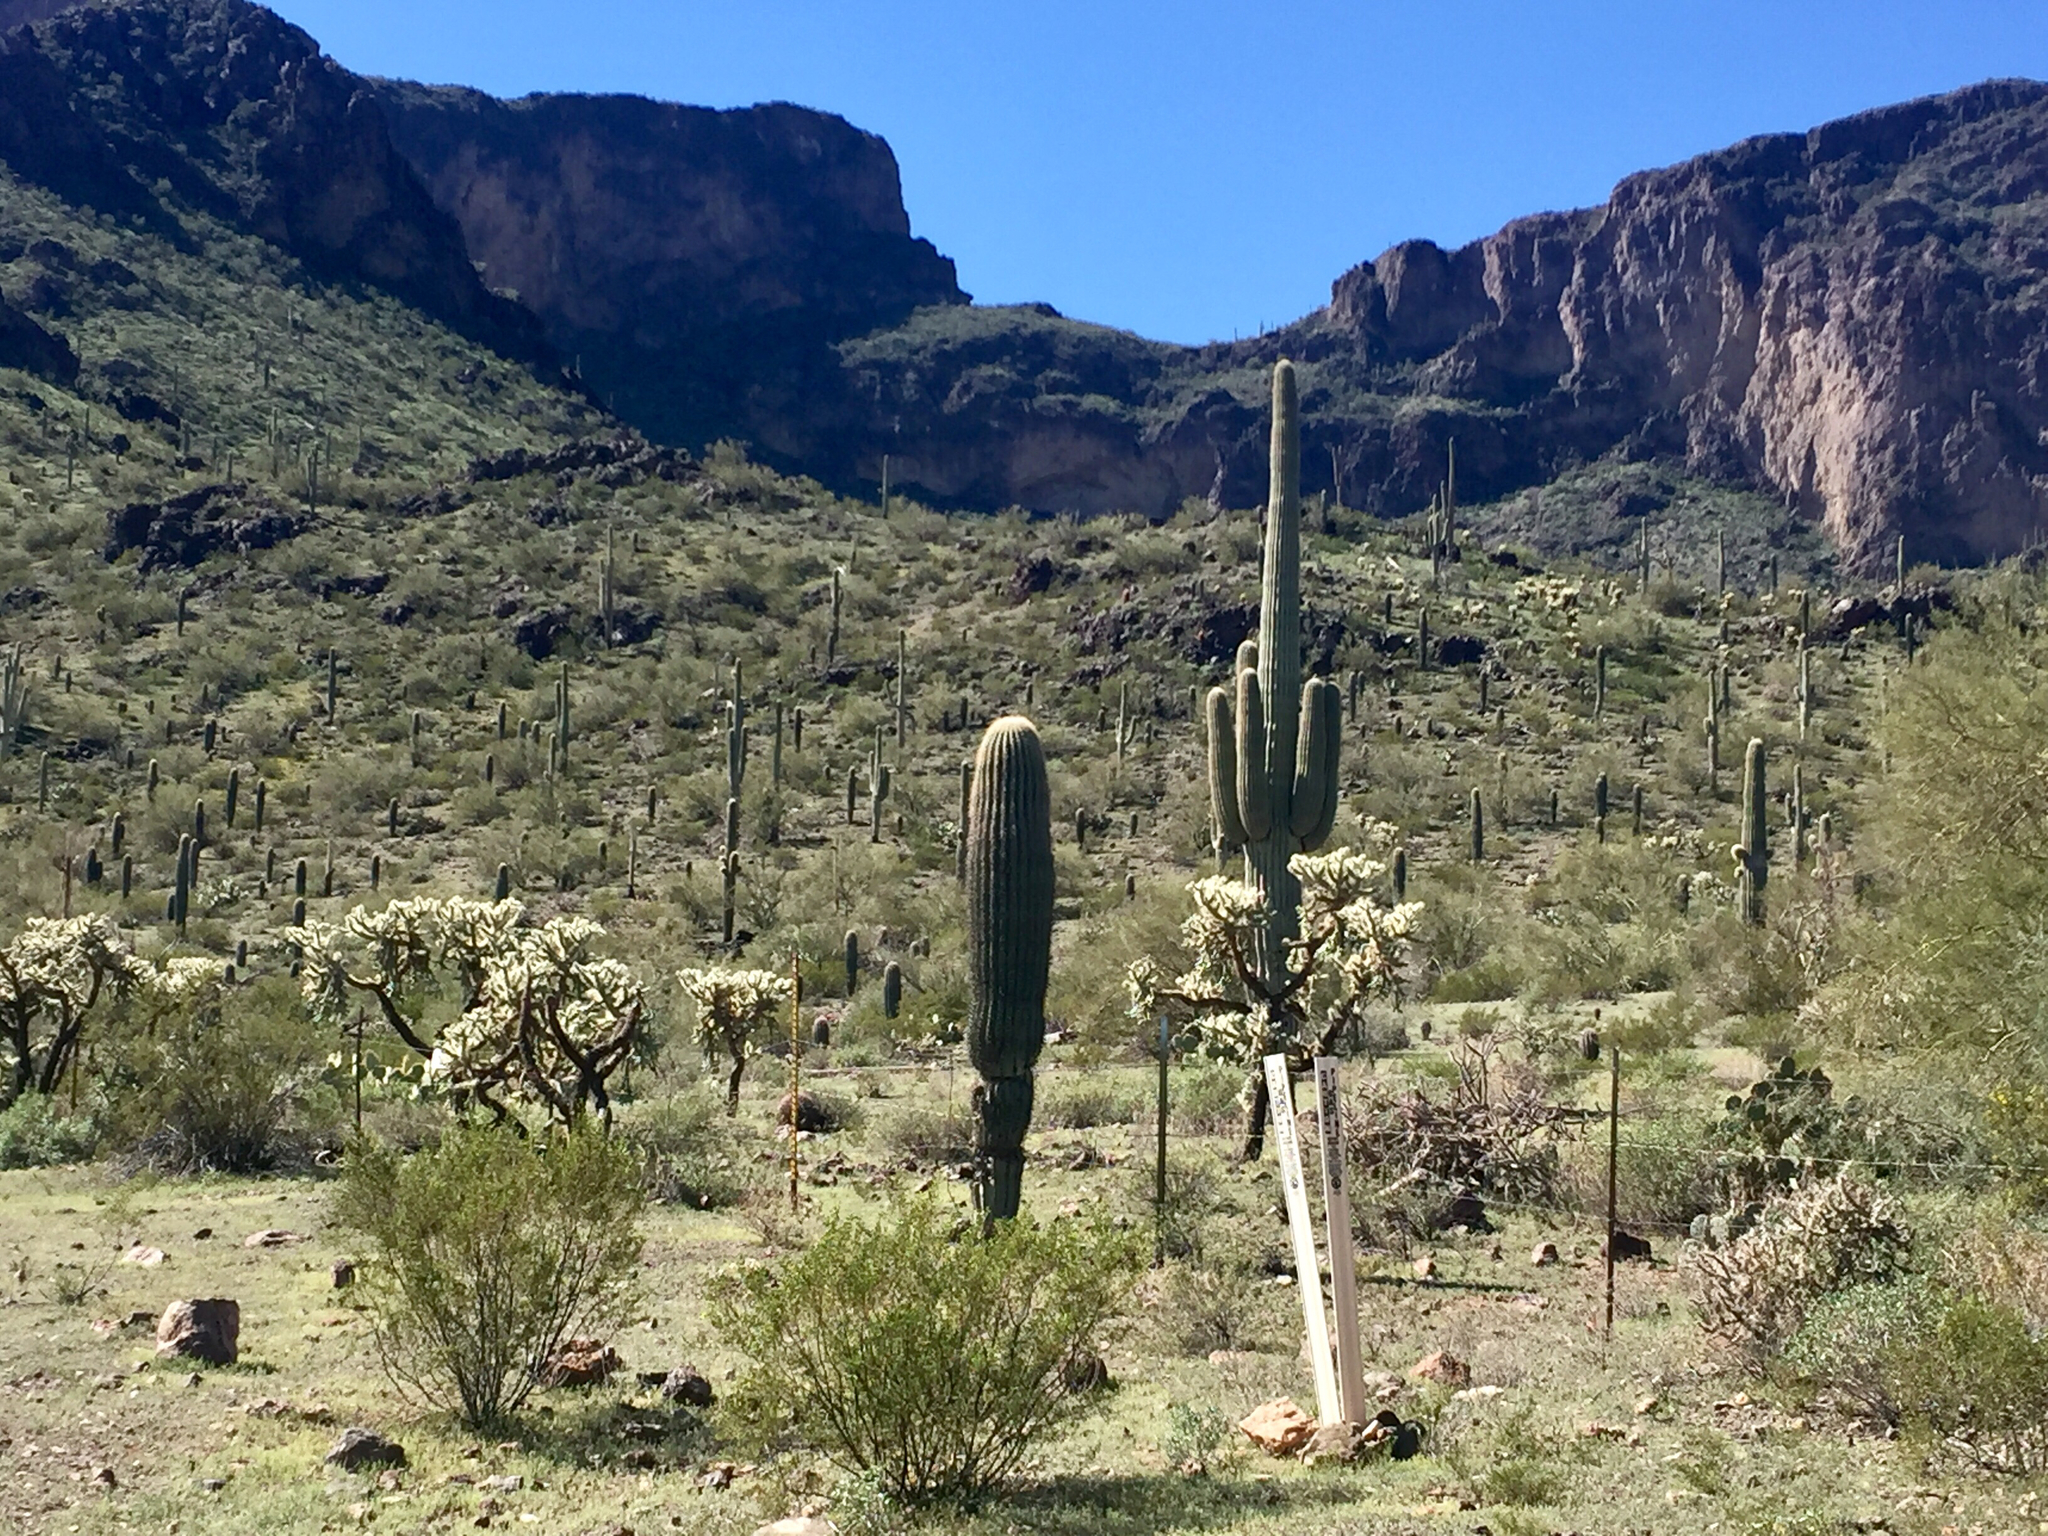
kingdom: Plantae
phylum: Tracheophyta
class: Magnoliopsida
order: Caryophyllales
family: Cactaceae
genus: Carnegiea
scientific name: Carnegiea gigantea
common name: Saguaro
